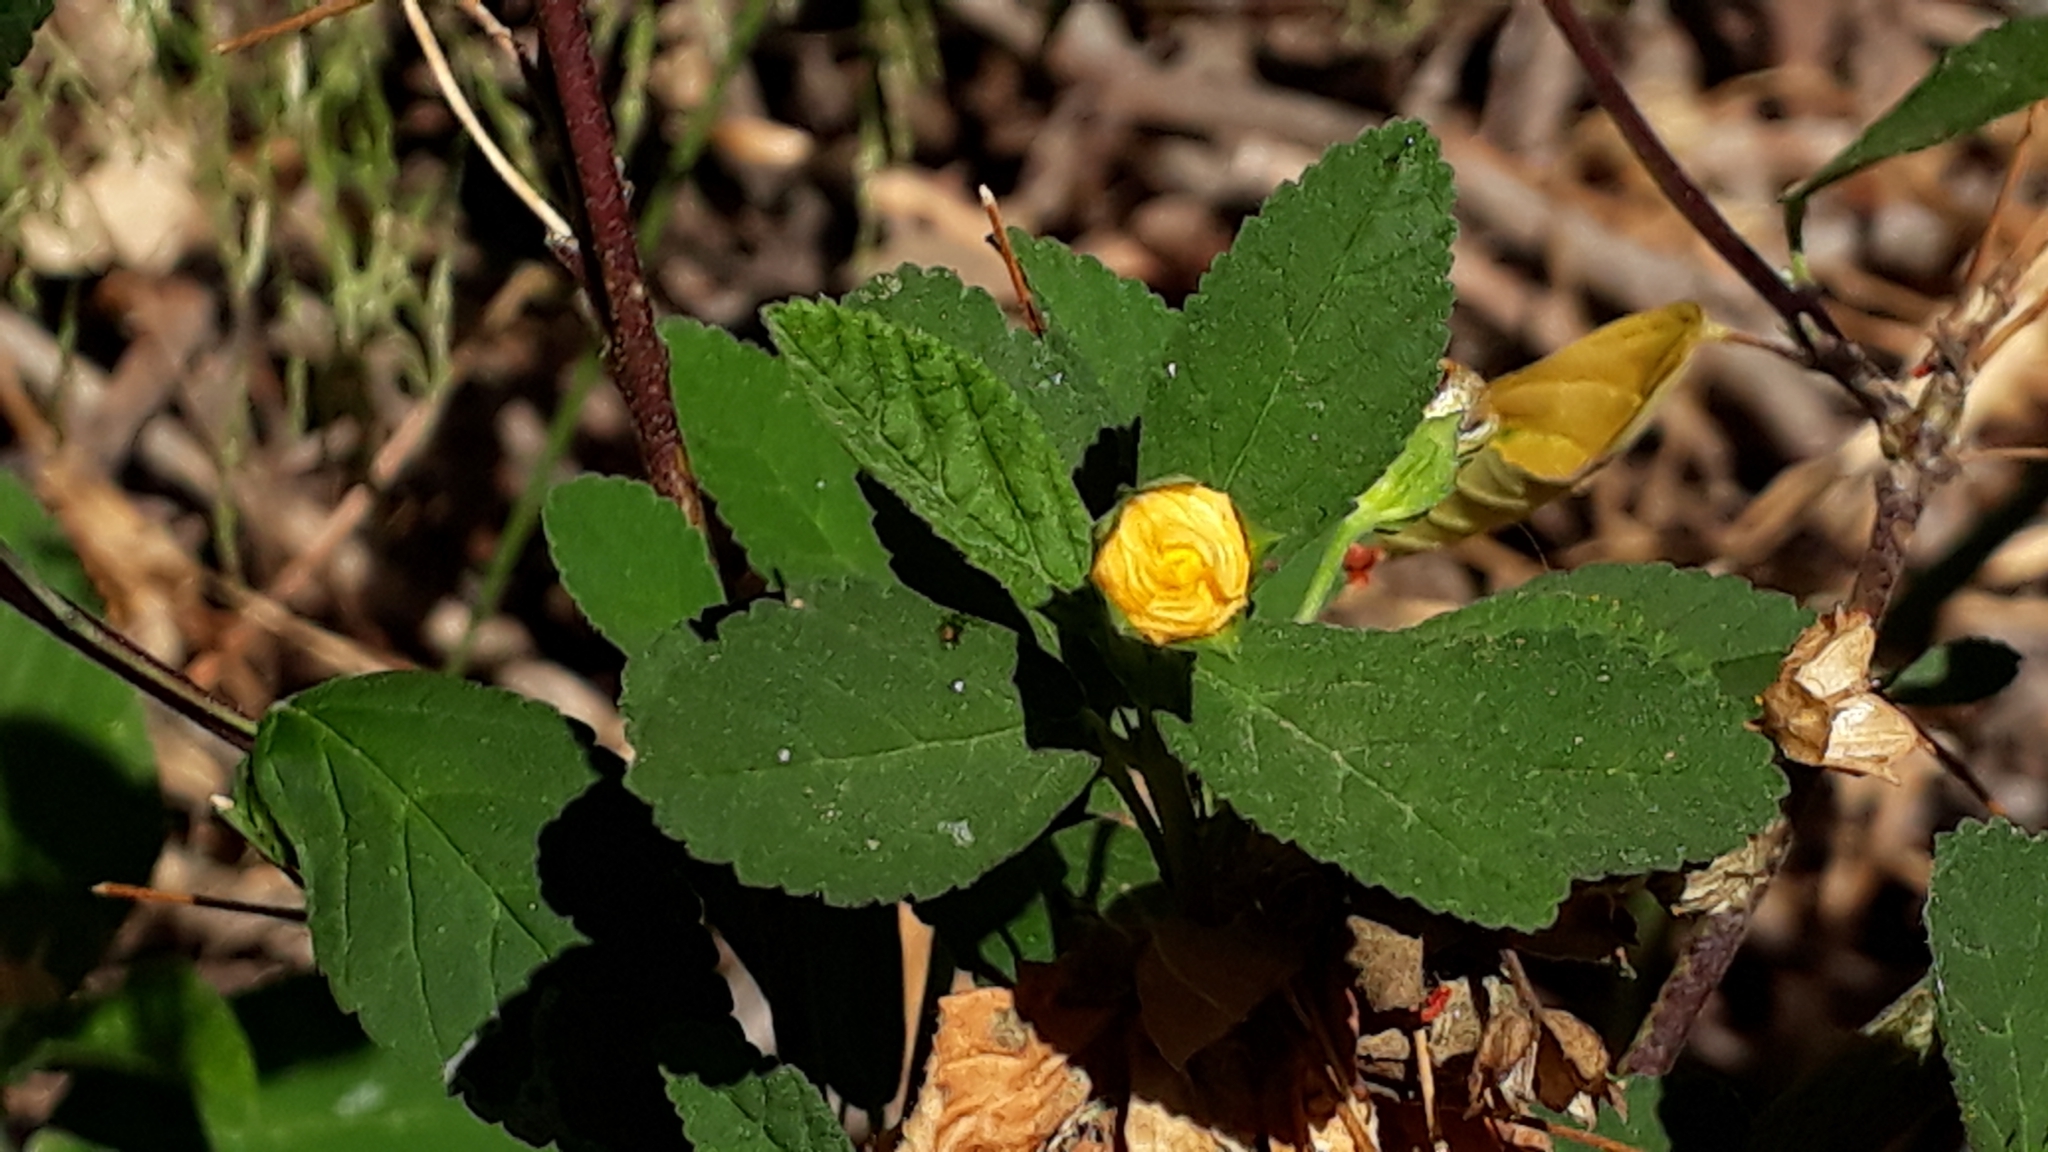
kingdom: Plantae
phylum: Tracheophyta
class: Magnoliopsida
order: Malvales
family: Malvaceae
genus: Sida
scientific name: Sida rhombifolia
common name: Queensland-hemp
